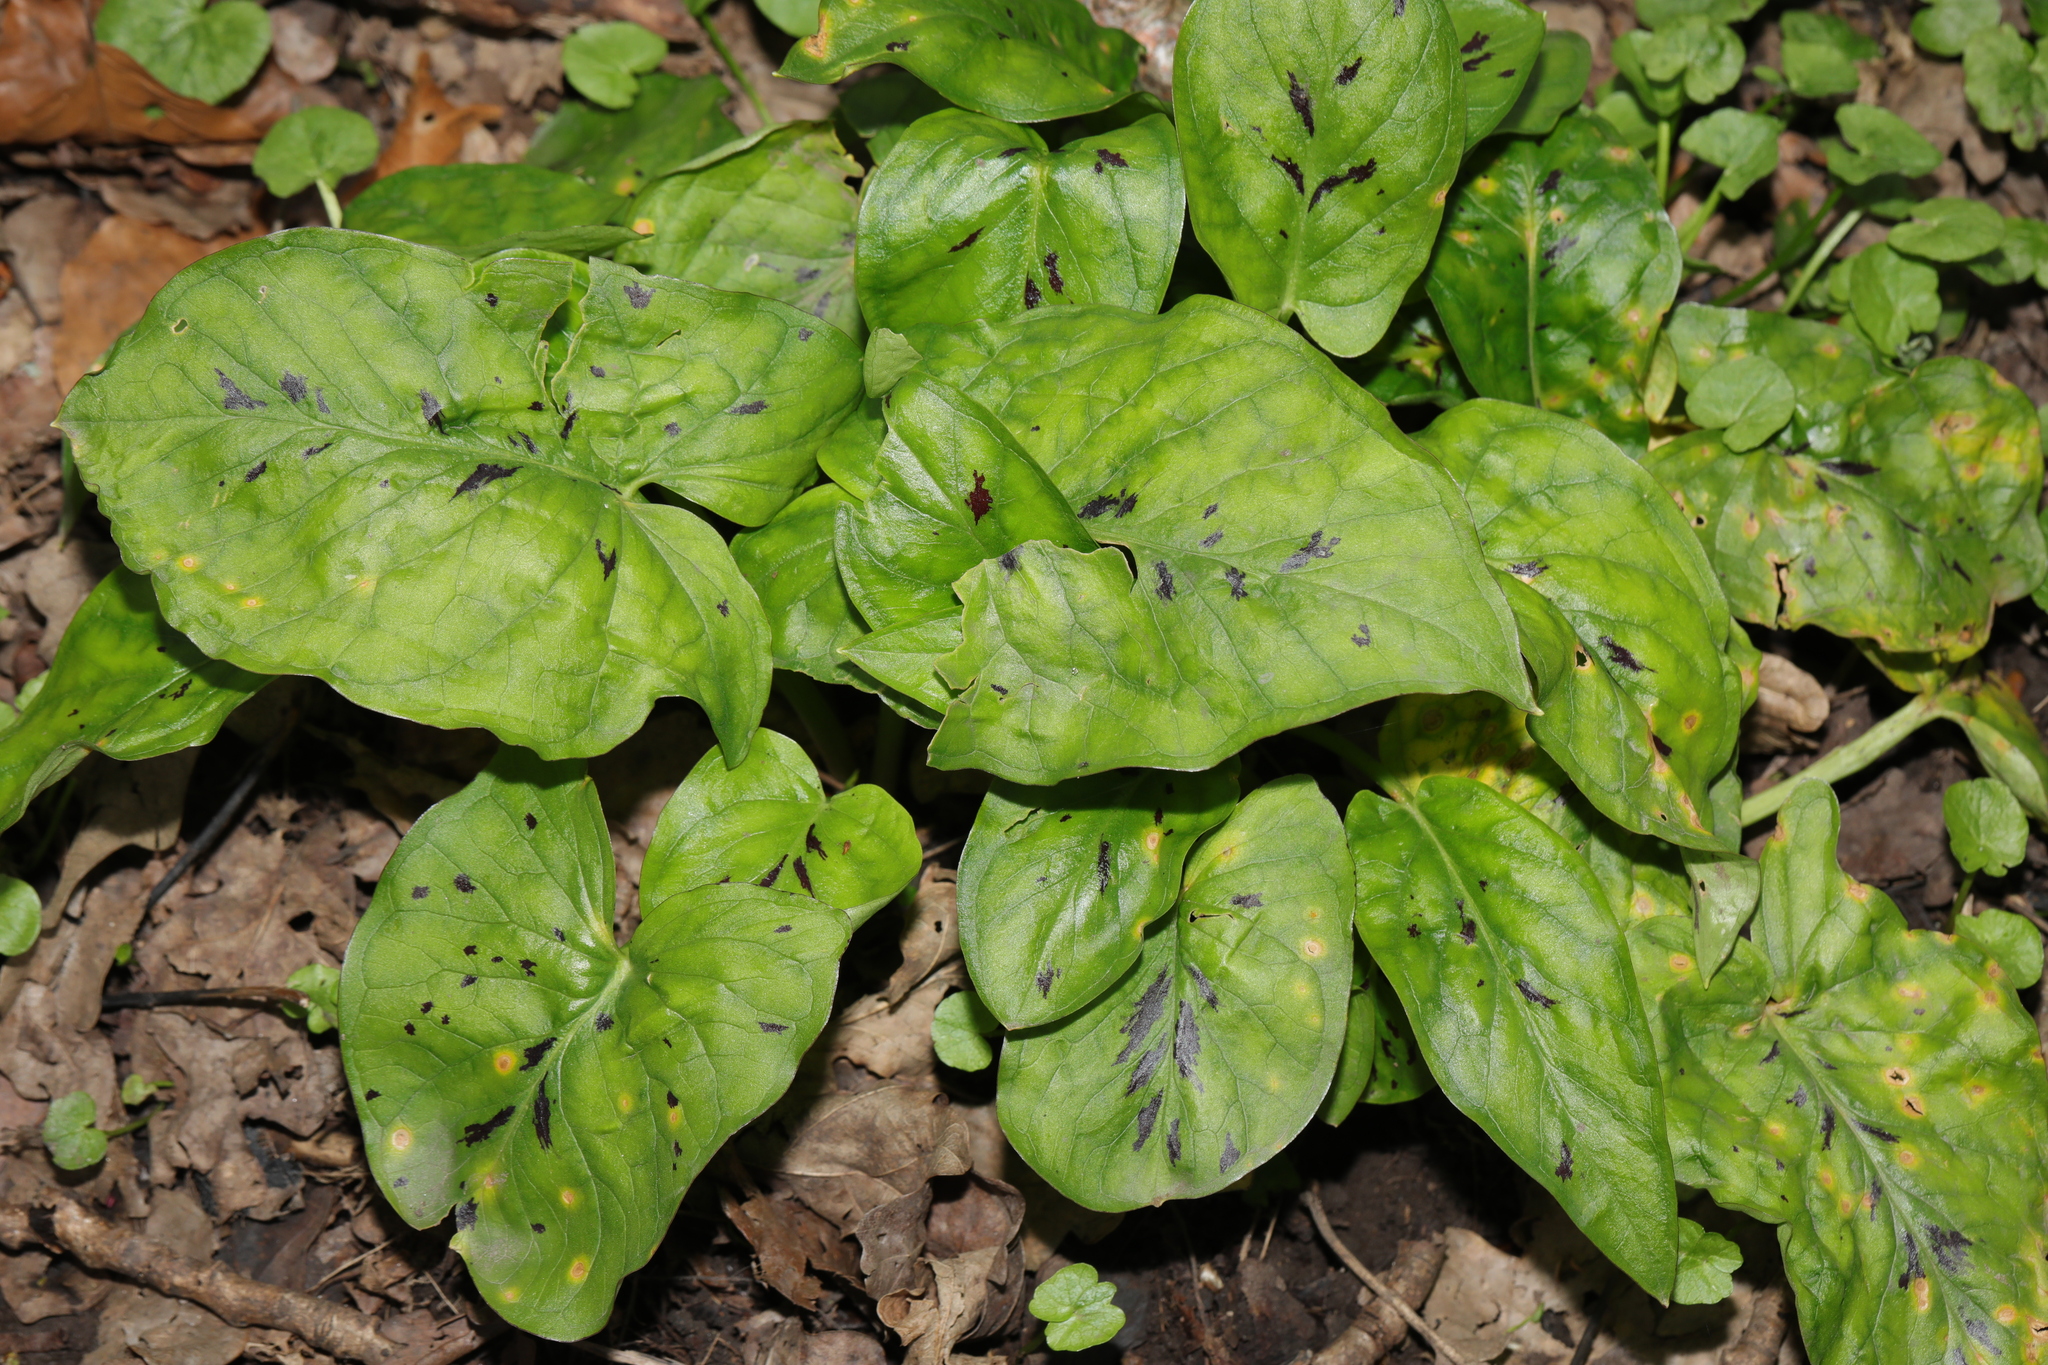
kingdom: Plantae
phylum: Tracheophyta
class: Liliopsida
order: Alismatales
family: Araceae
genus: Arum
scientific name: Arum maculatum
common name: Lords-and-ladies
